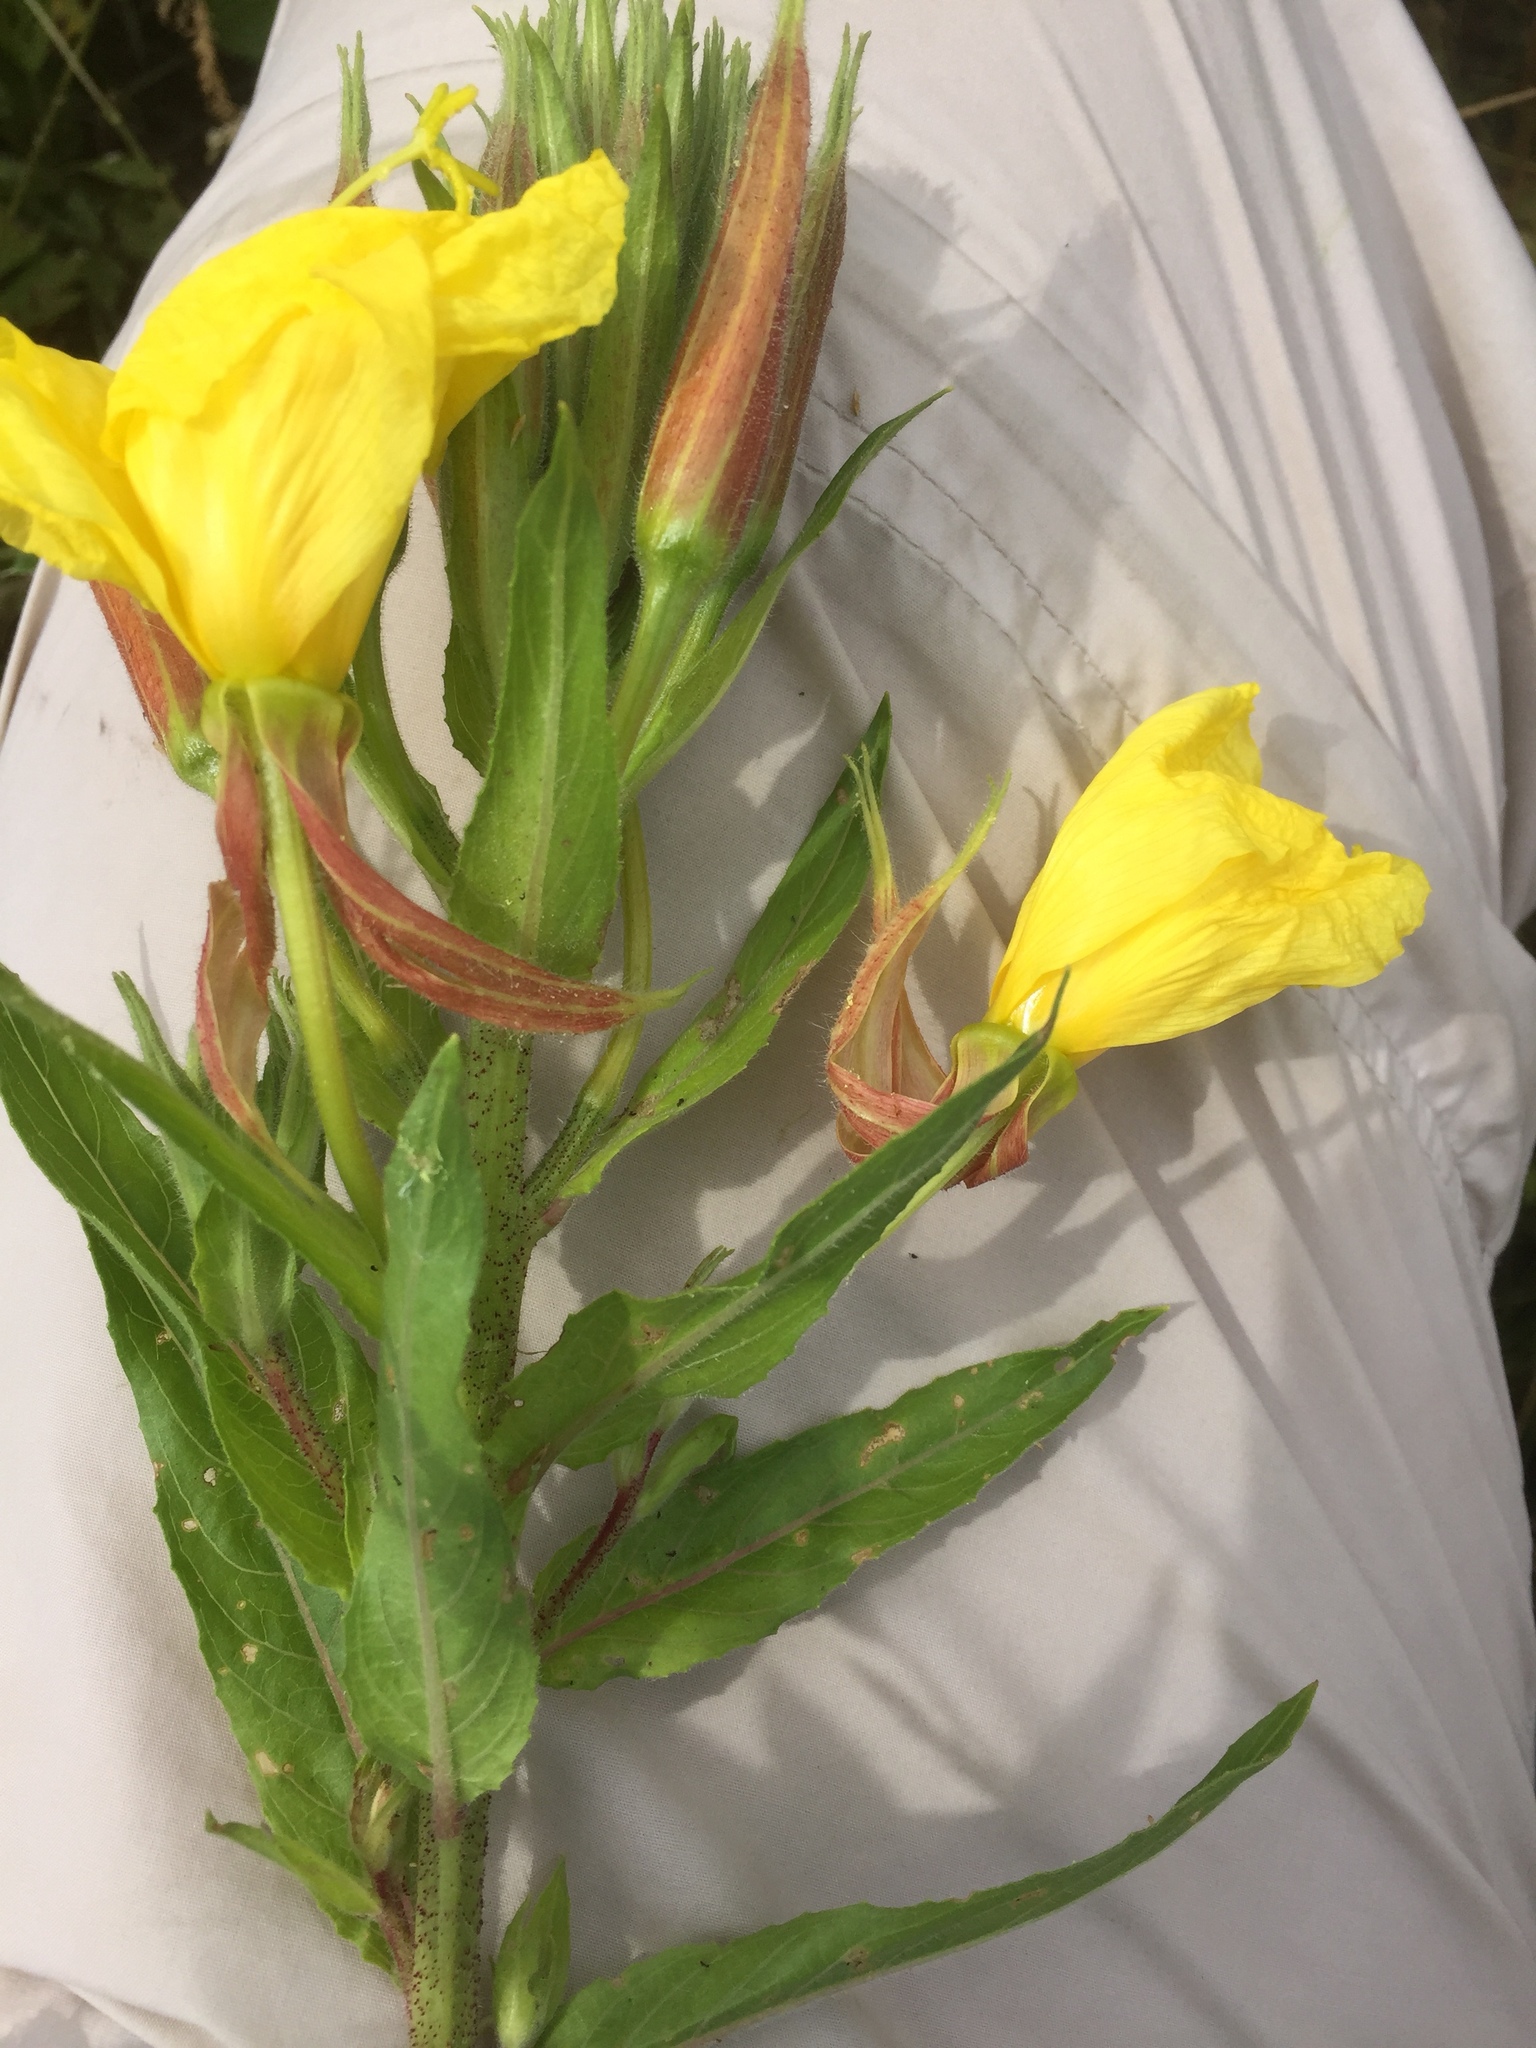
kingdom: Plantae
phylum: Tracheophyta
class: Magnoliopsida
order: Myrtales
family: Onagraceae
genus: Oenothera
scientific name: Oenothera glazioviana
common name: Large-flowered evening-primrose
